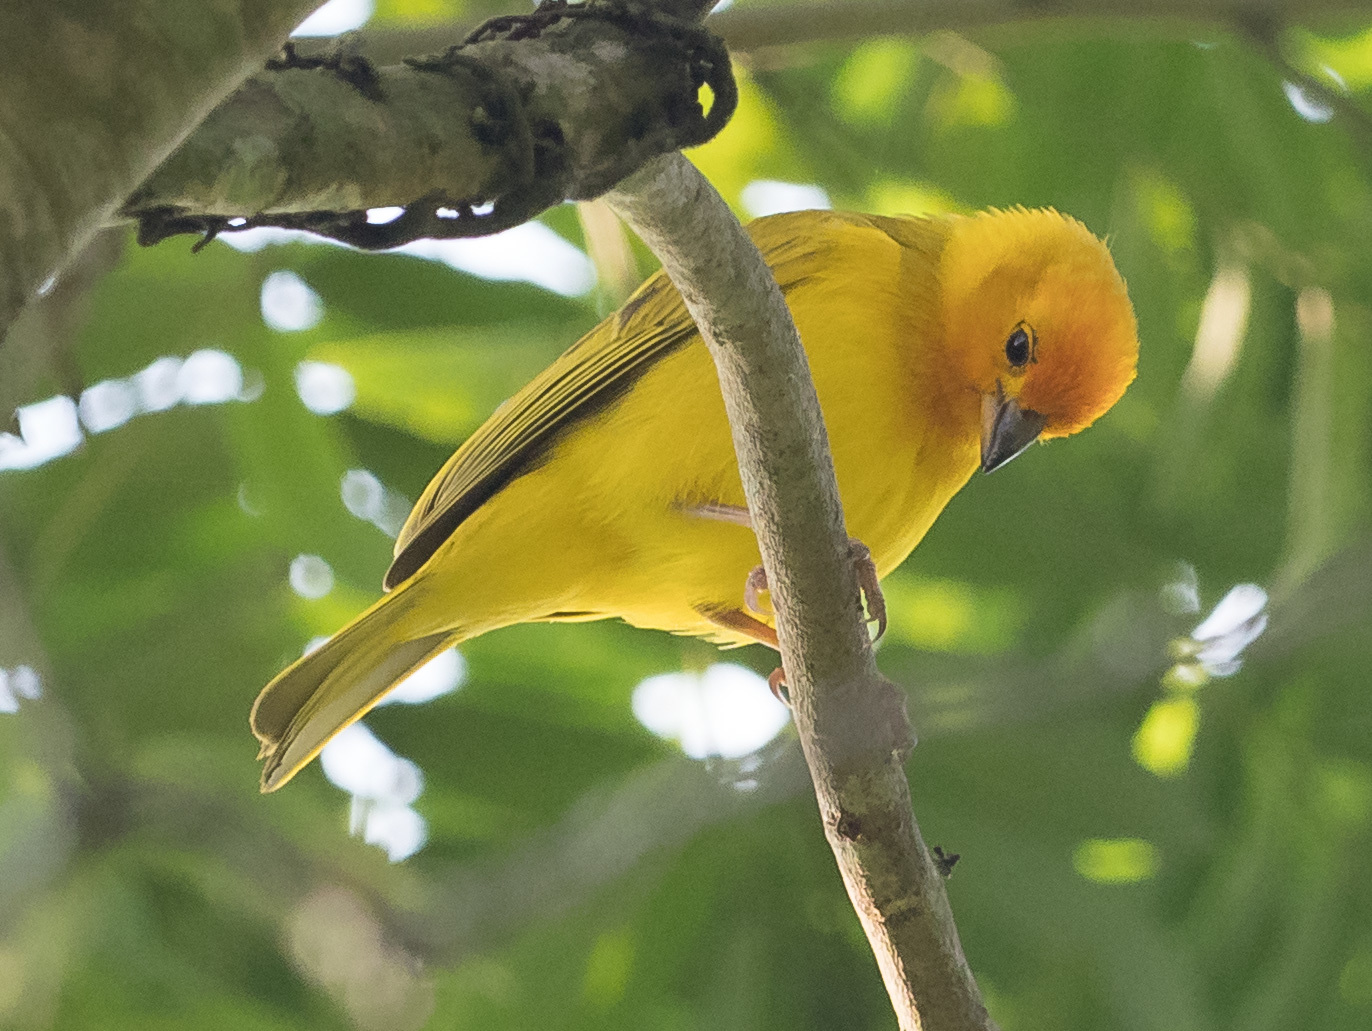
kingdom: Animalia
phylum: Chordata
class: Aves
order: Passeriformes
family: Thraupidae
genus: Sicalis
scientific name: Sicalis flaveola
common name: Saffron finch
